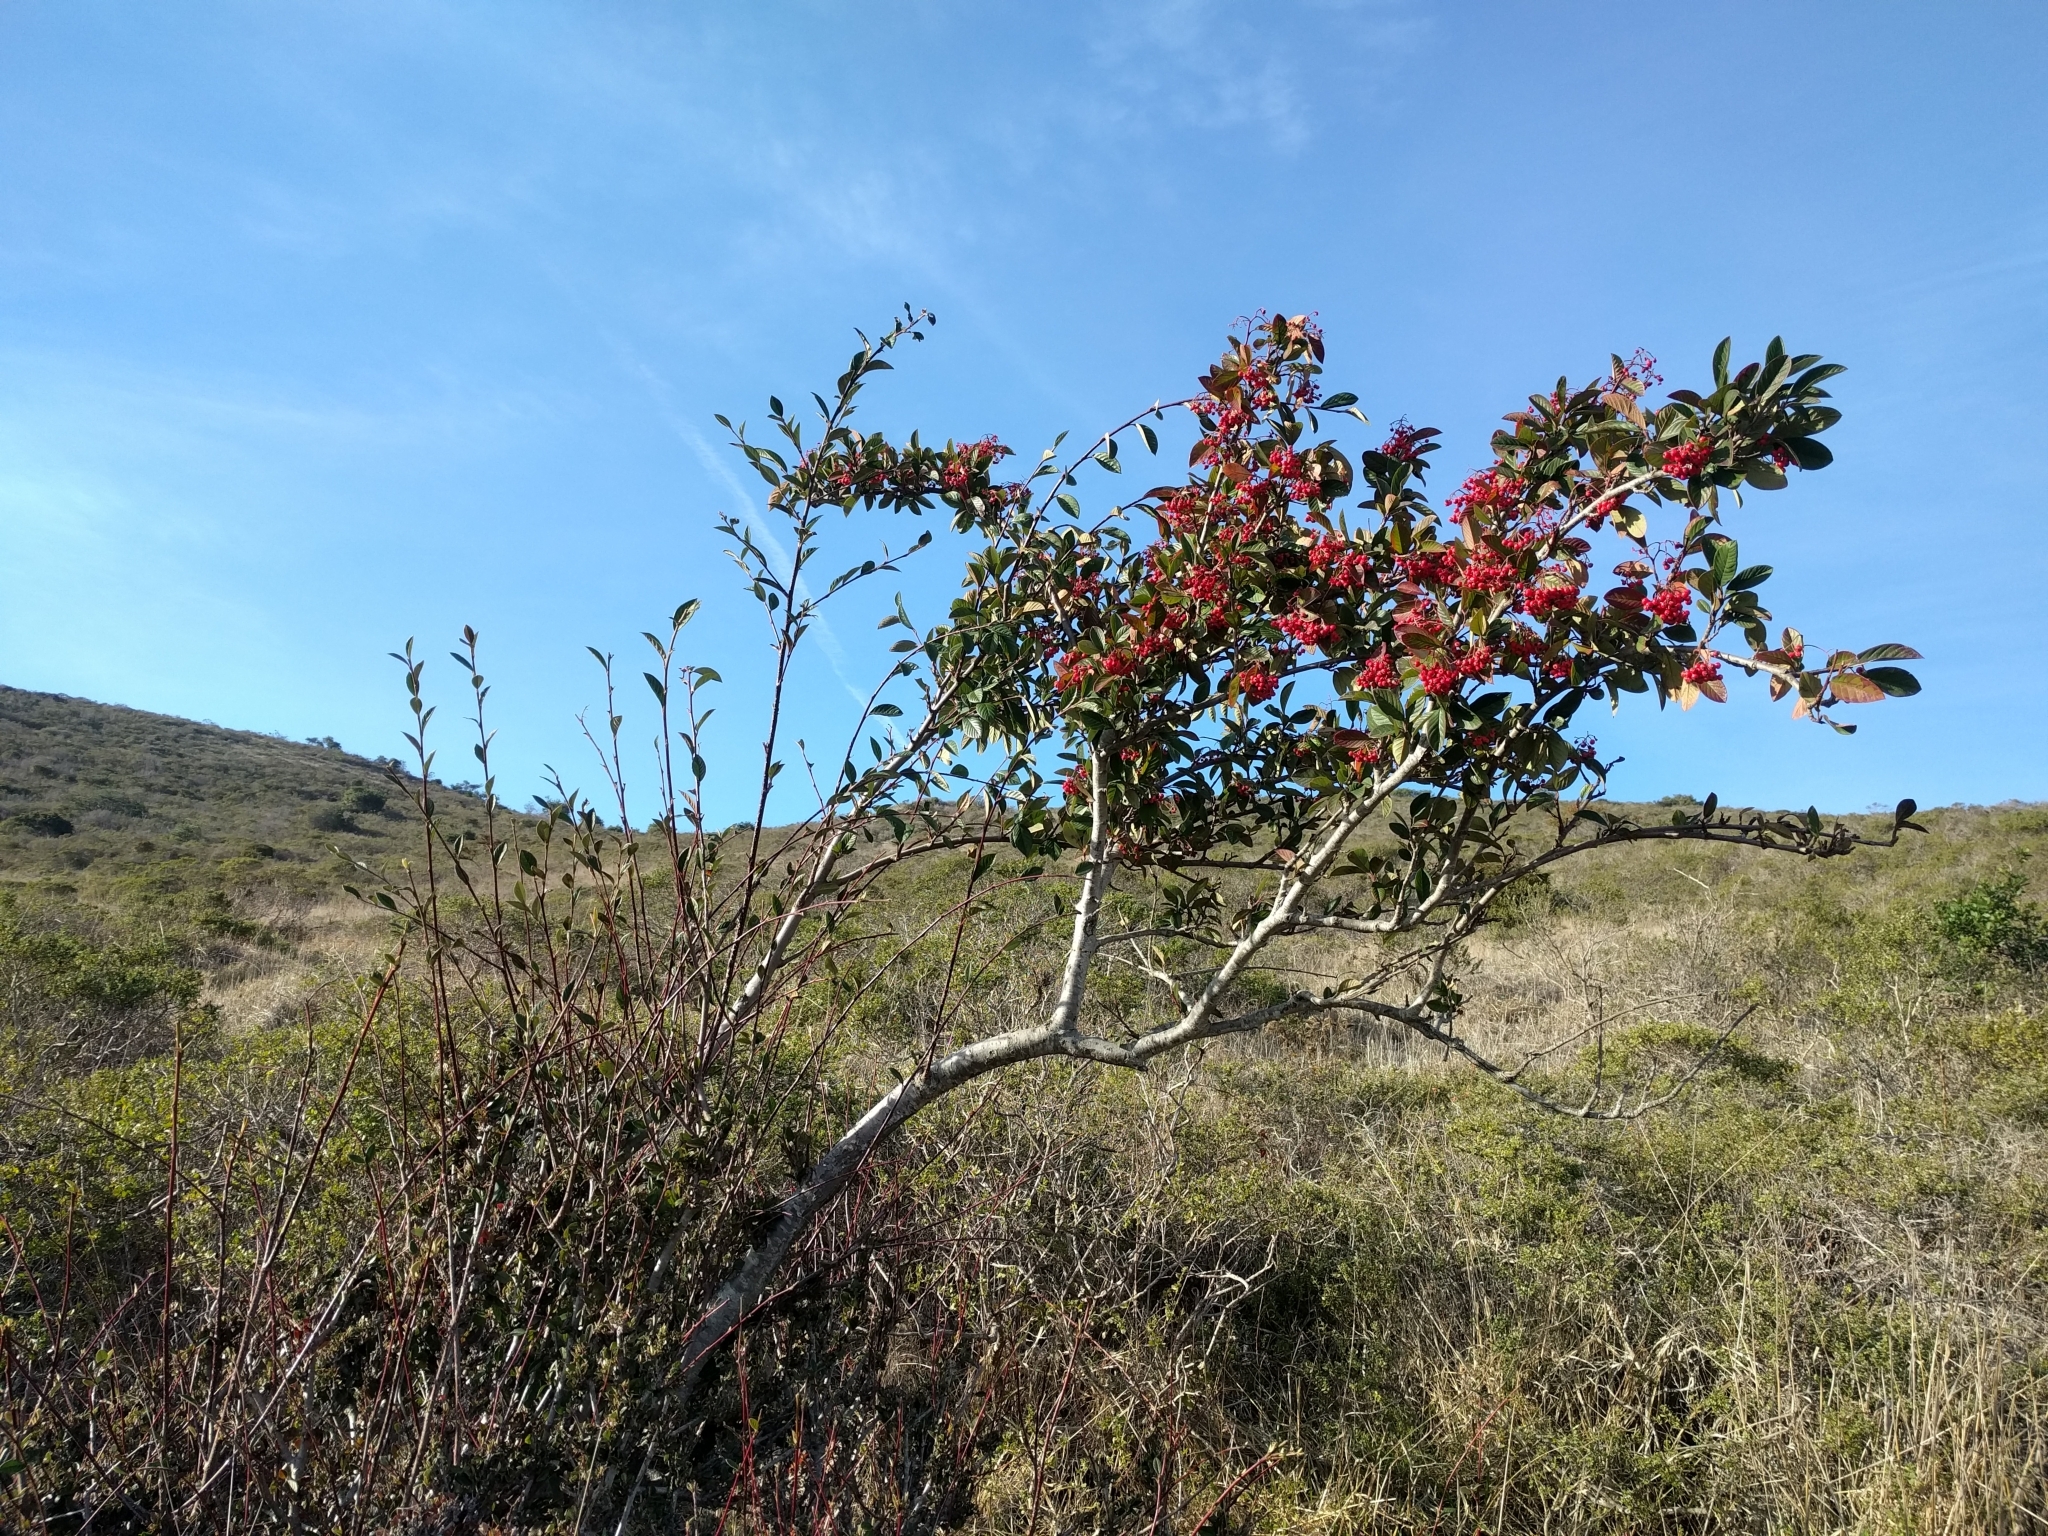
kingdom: Plantae
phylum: Tracheophyta
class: Magnoliopsida
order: Rosales
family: Rosaceae
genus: Heteromeles
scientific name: Heteromeles arbutifolia
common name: California-holly
